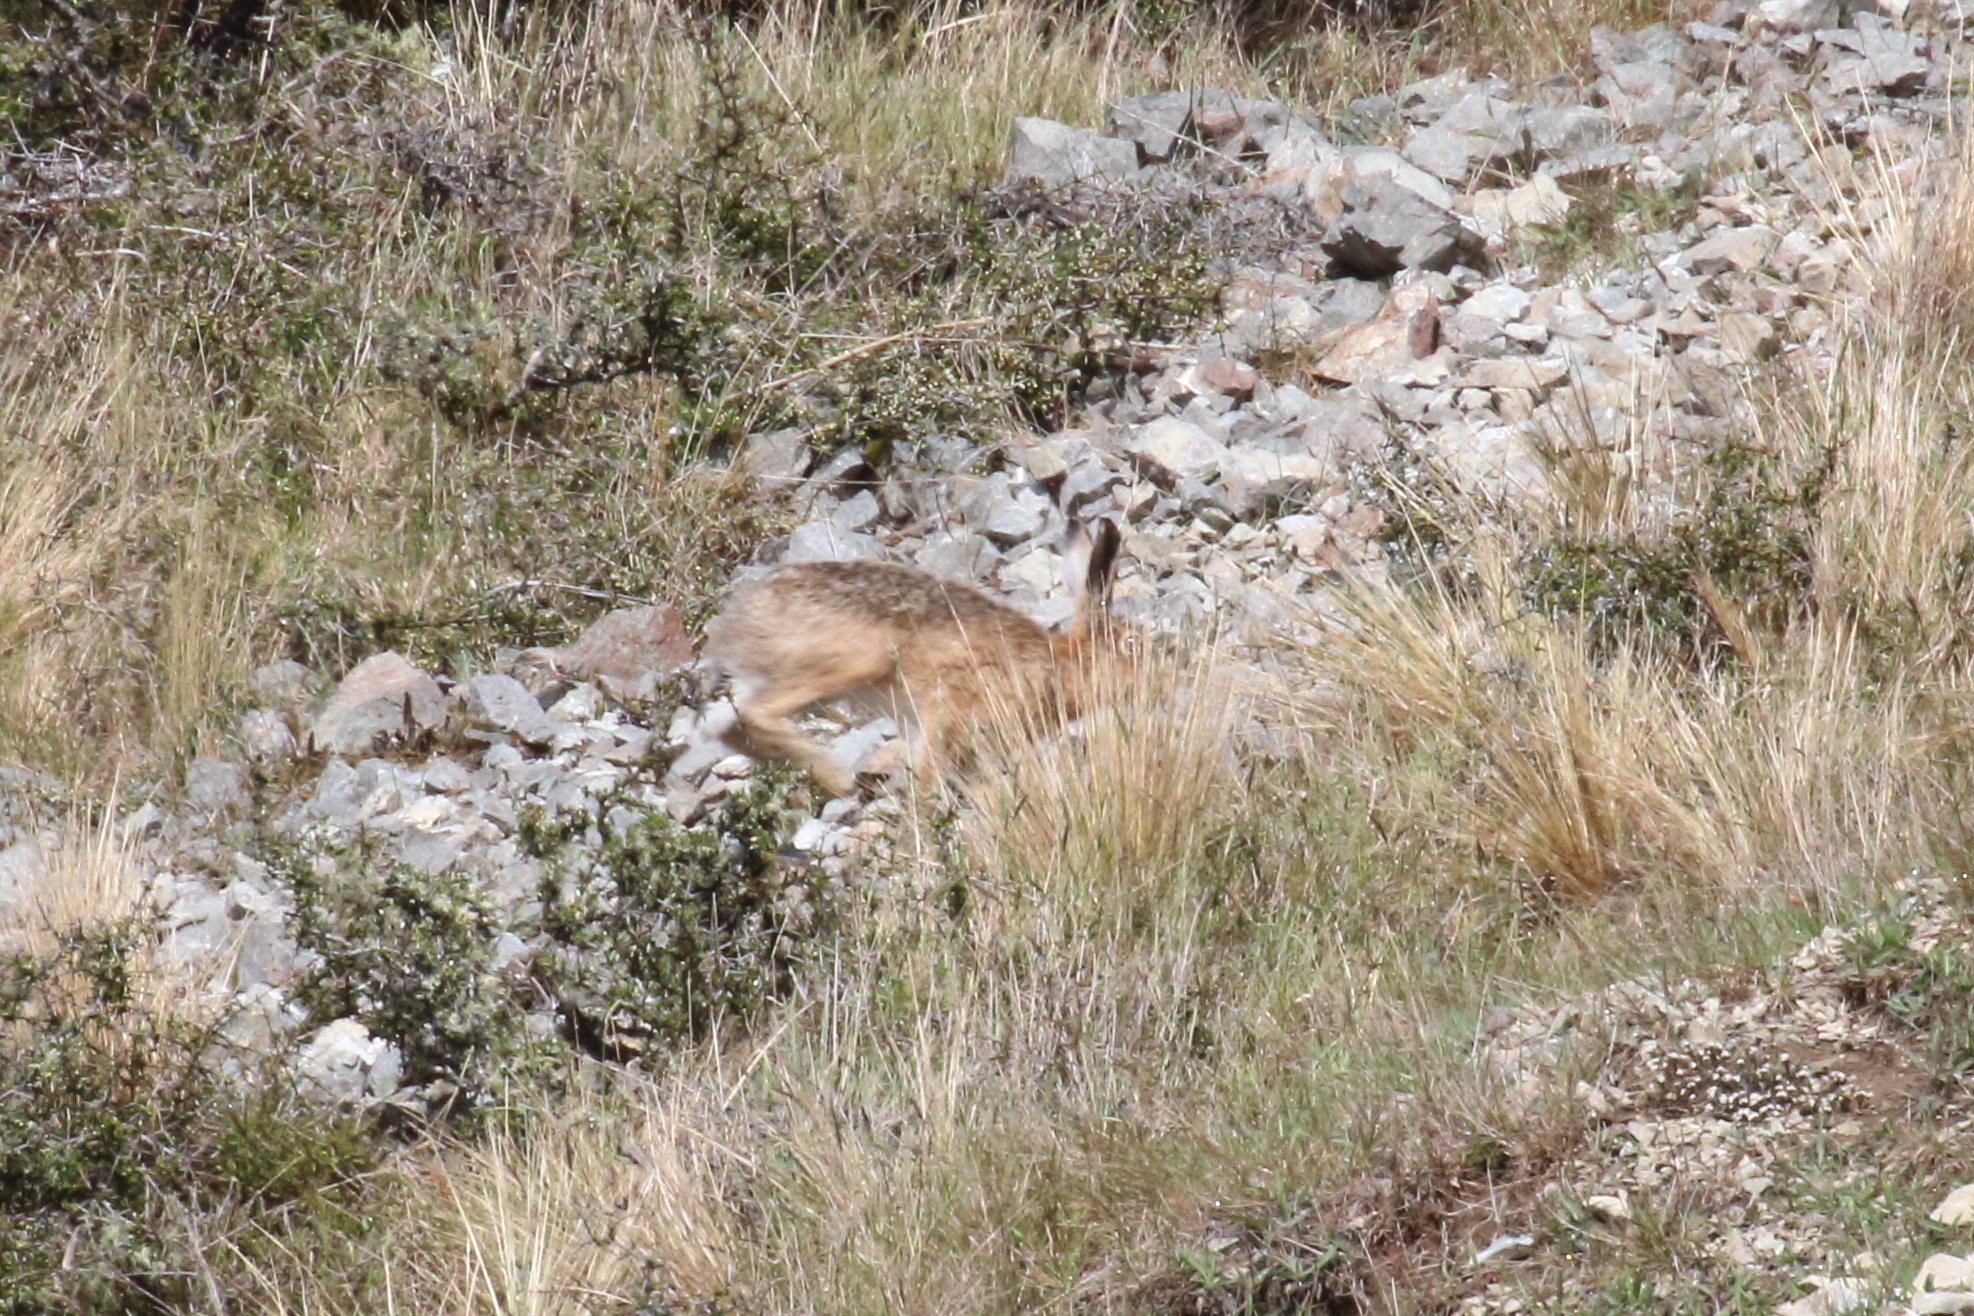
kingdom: Animalia
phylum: Chordata
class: Mammalia
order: Lagomorpha
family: Leporidae
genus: Lepus
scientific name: Lepus europaeus
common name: European hare
